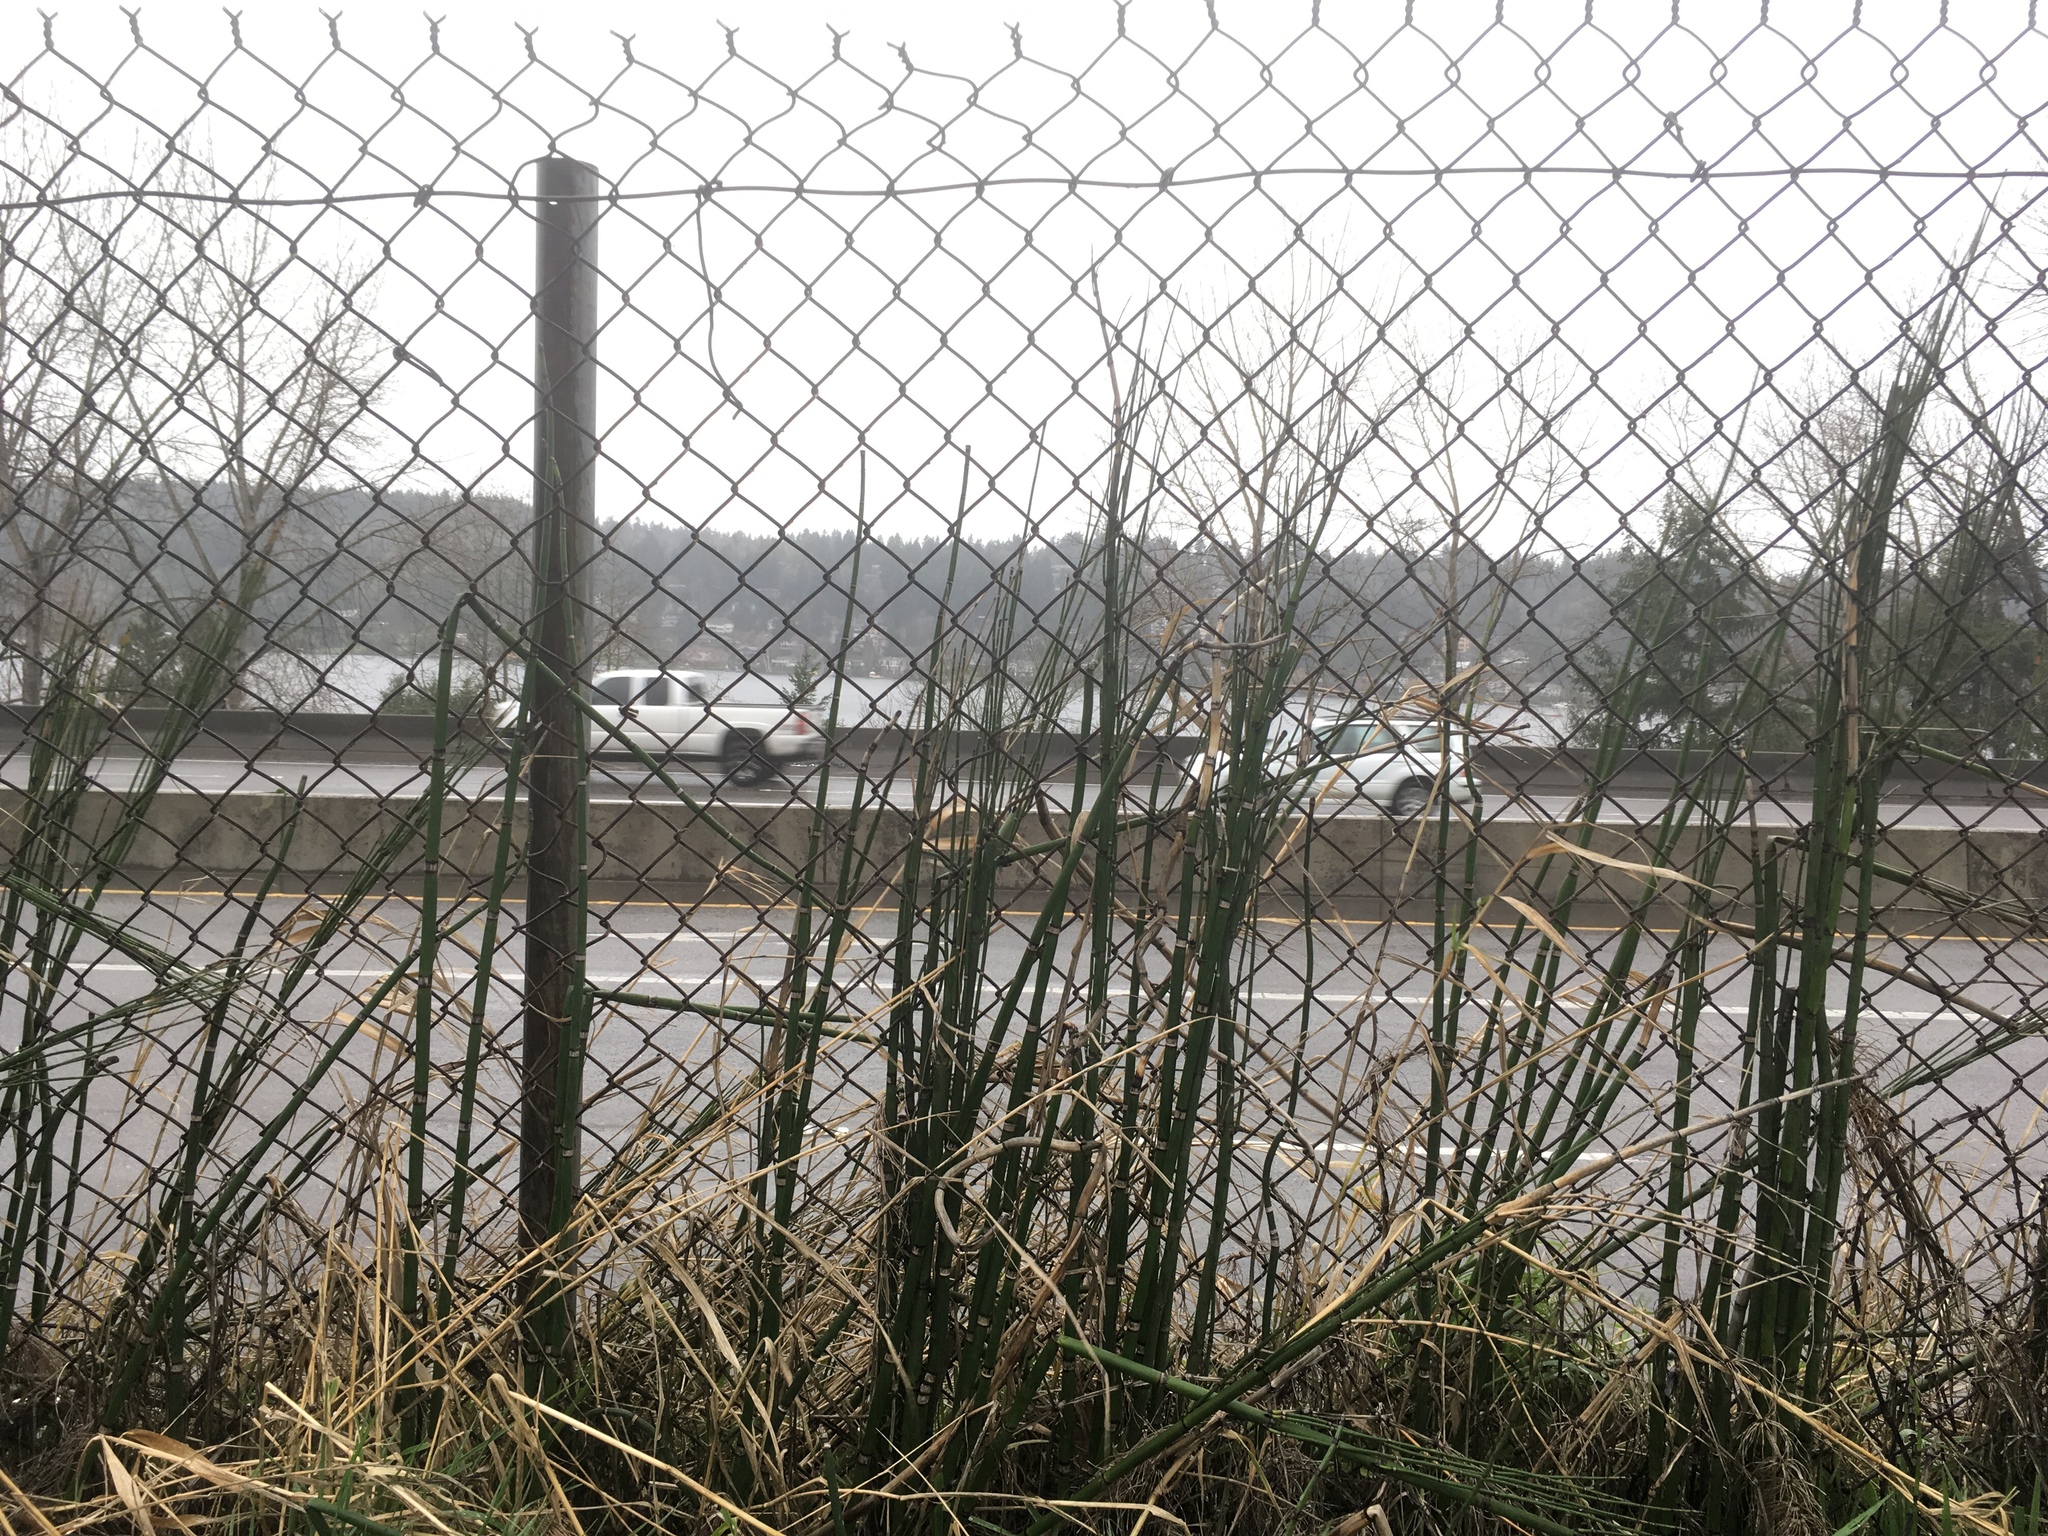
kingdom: Plantae
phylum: Tracheophyta
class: Polypodiopsida
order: Equisetales
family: Equisetaceae
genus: Equisetum
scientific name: Equisetum hyemale
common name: Rough horsetail
